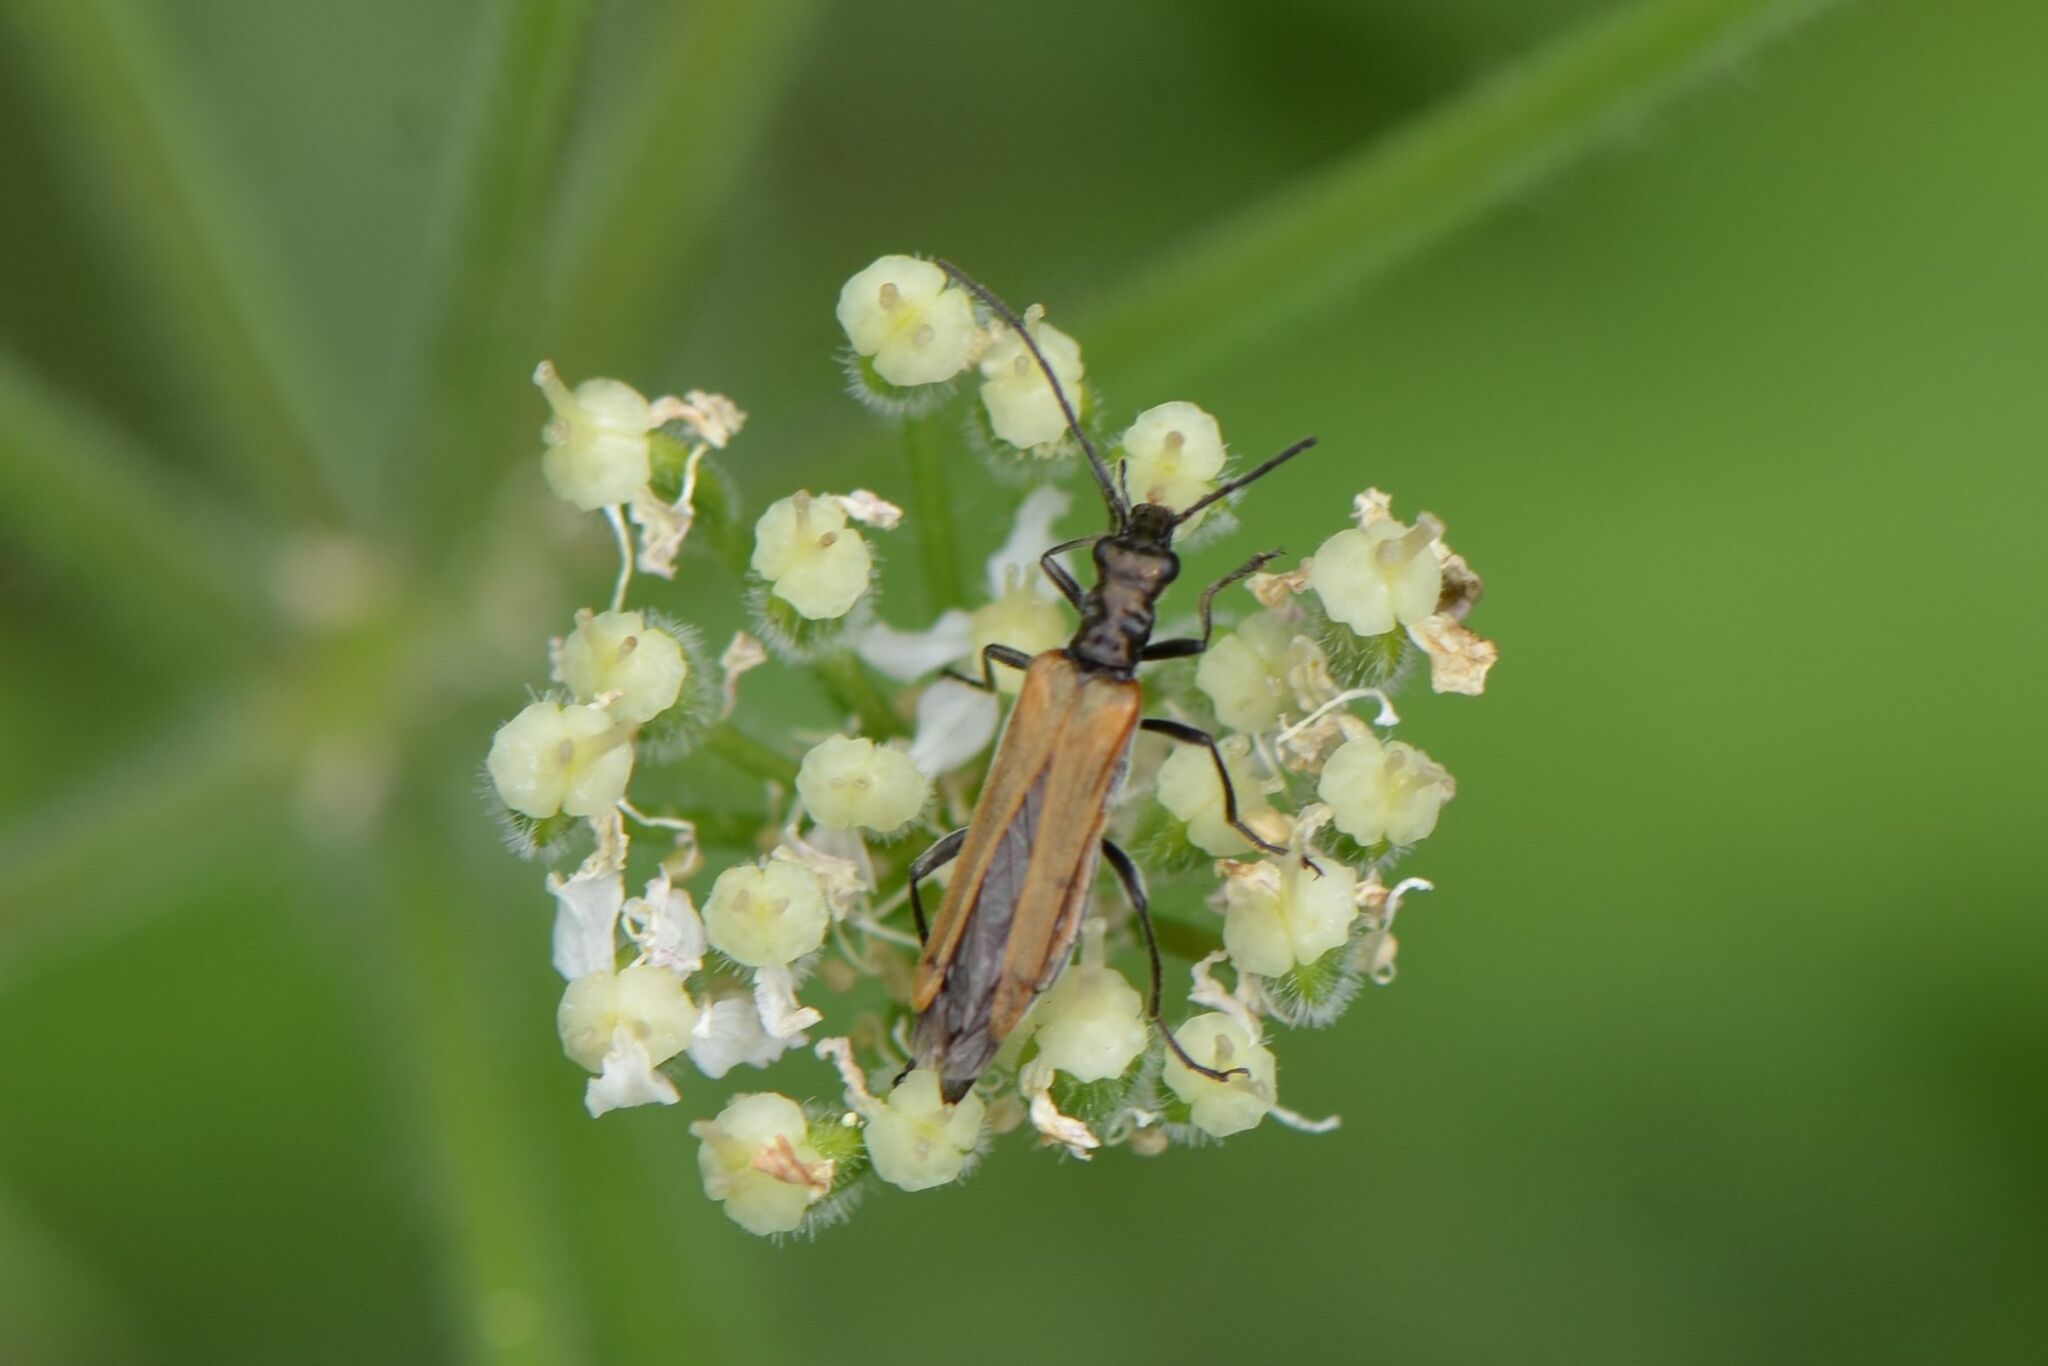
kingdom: Animalia
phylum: Arthropoda
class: Insecta
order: Coleoptera
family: Oedemeridae
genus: Oedemera
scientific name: Oedemera femorata
